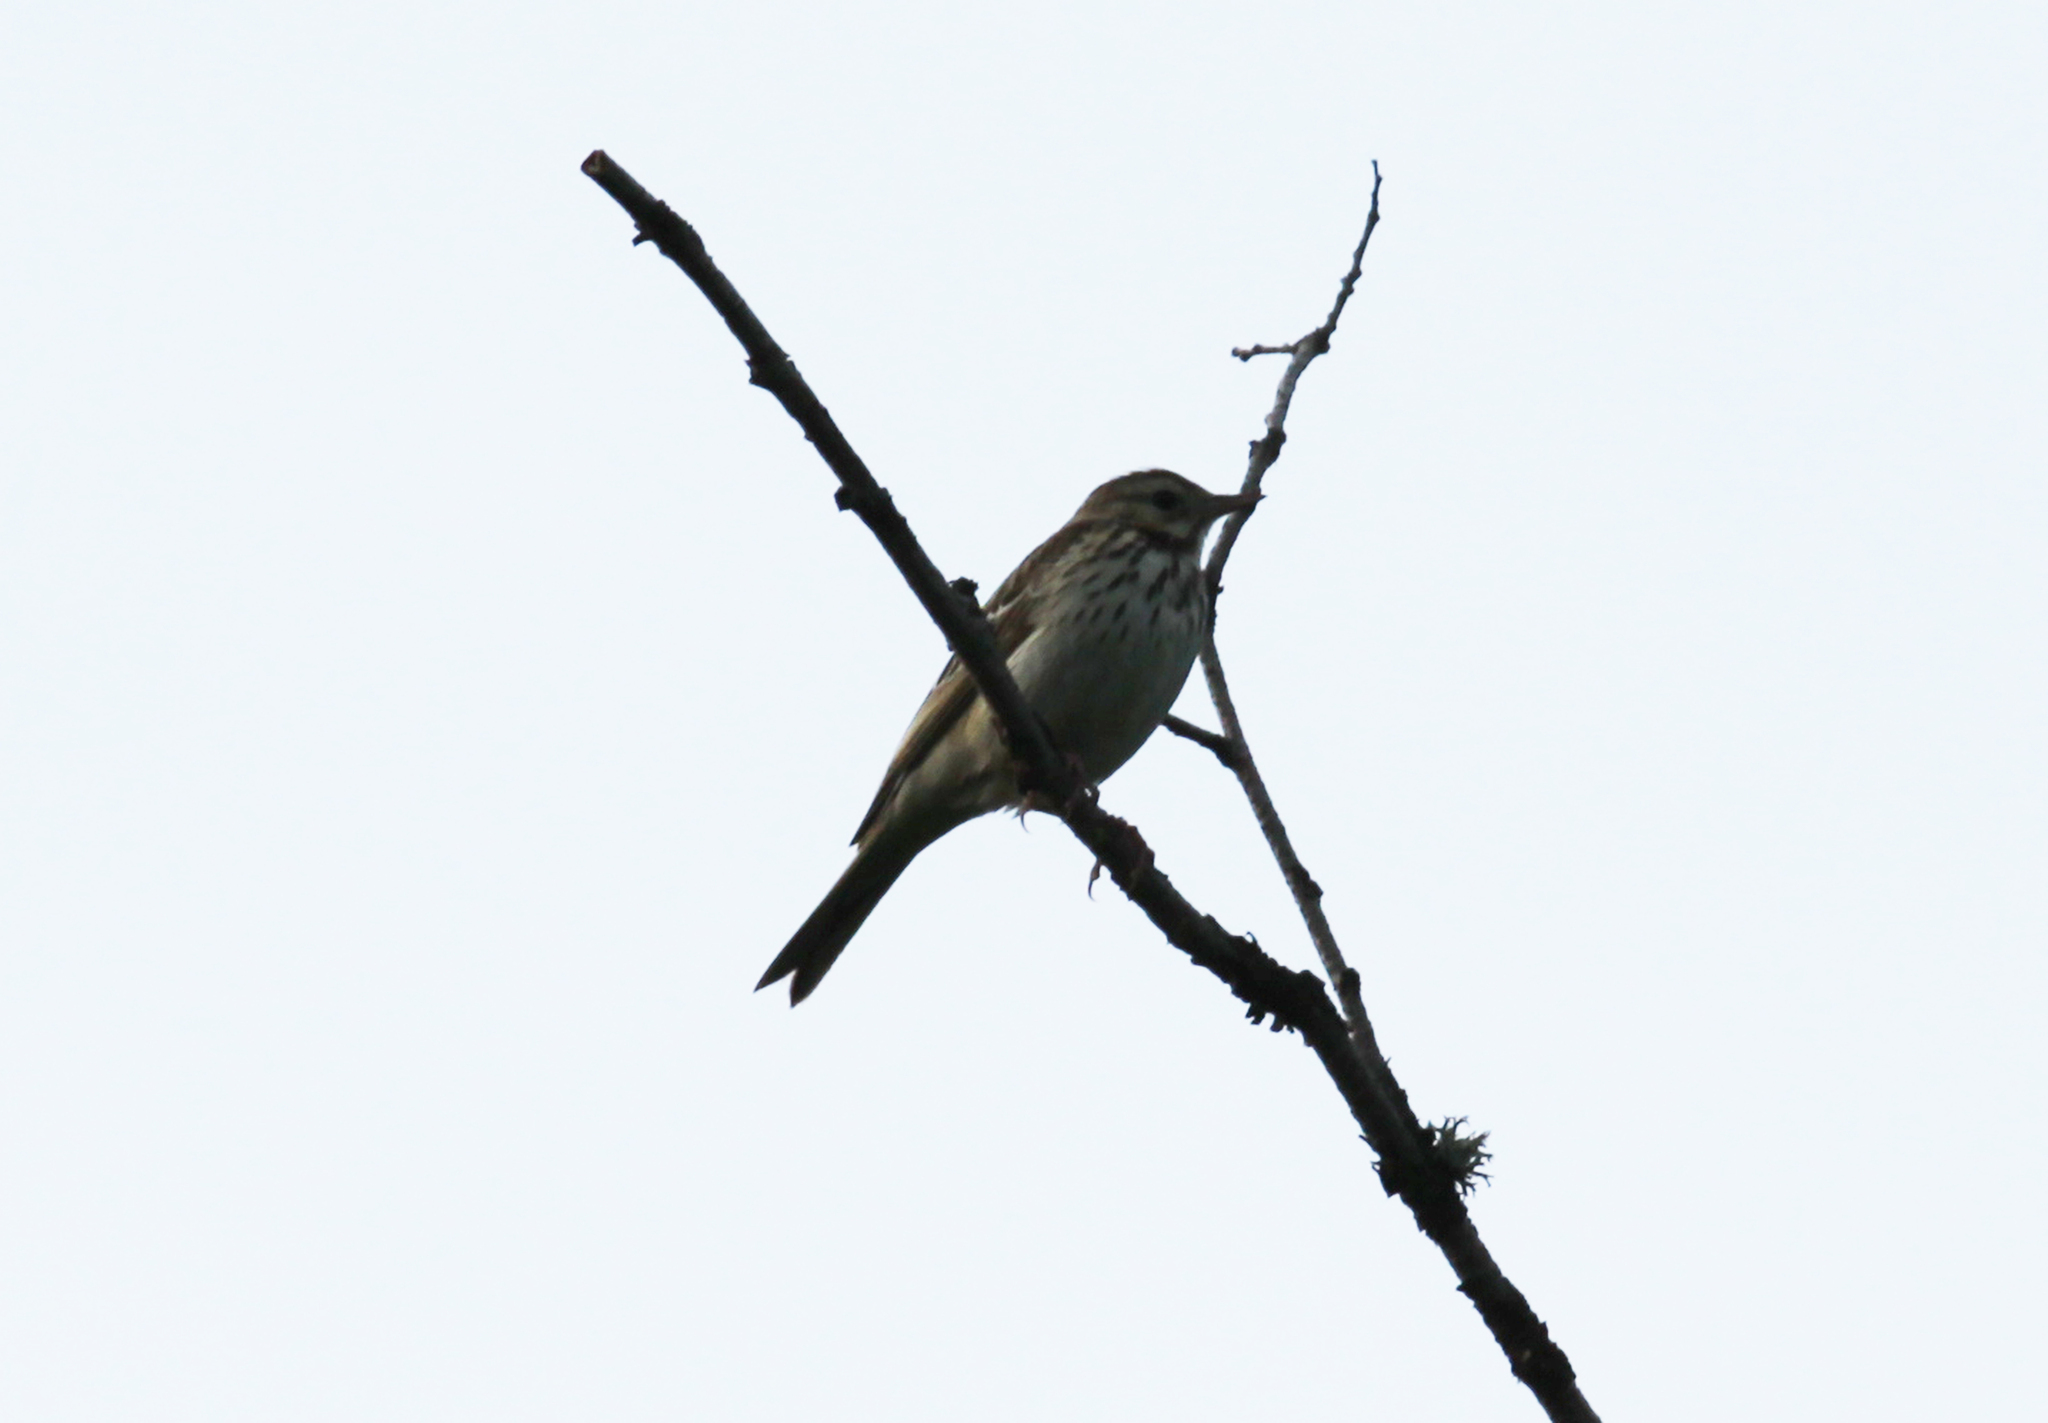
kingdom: Animalia
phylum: Chordata
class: Aves
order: Passeriformes
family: Motacillidae
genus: Anthus
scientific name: Anthus trivialis
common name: Tree pipit
